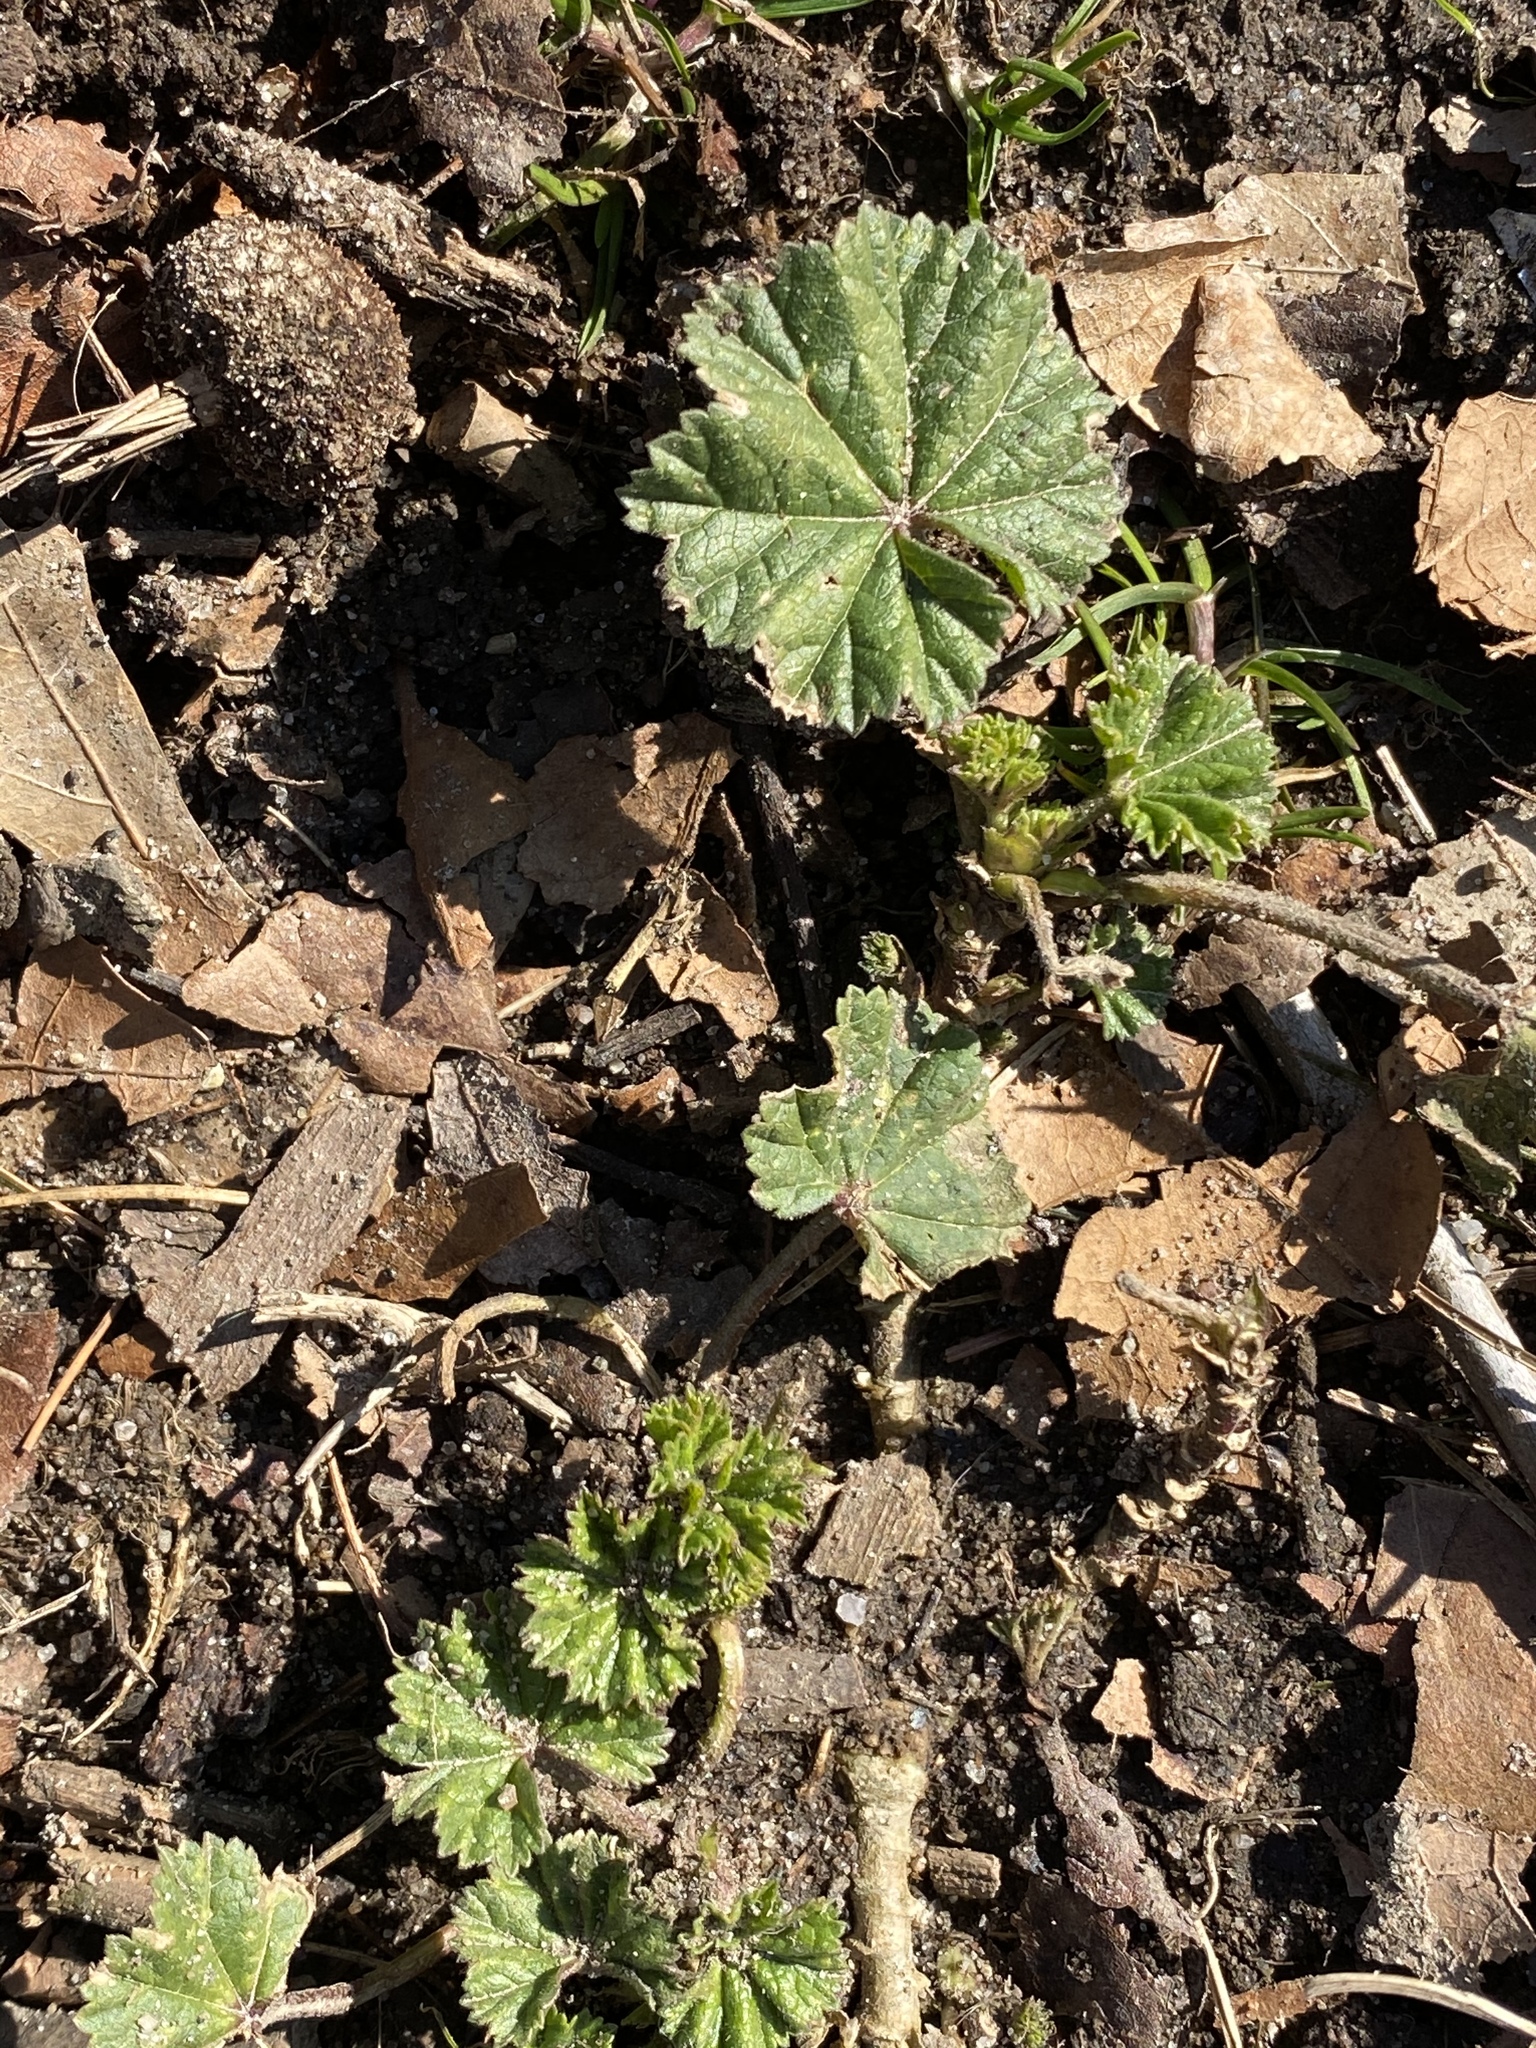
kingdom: Plantae
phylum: Tracheophyta
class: Magnoliopsida
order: Malvales
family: Malvaceae
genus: Malva
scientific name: Malva neglecta
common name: Common mallow
